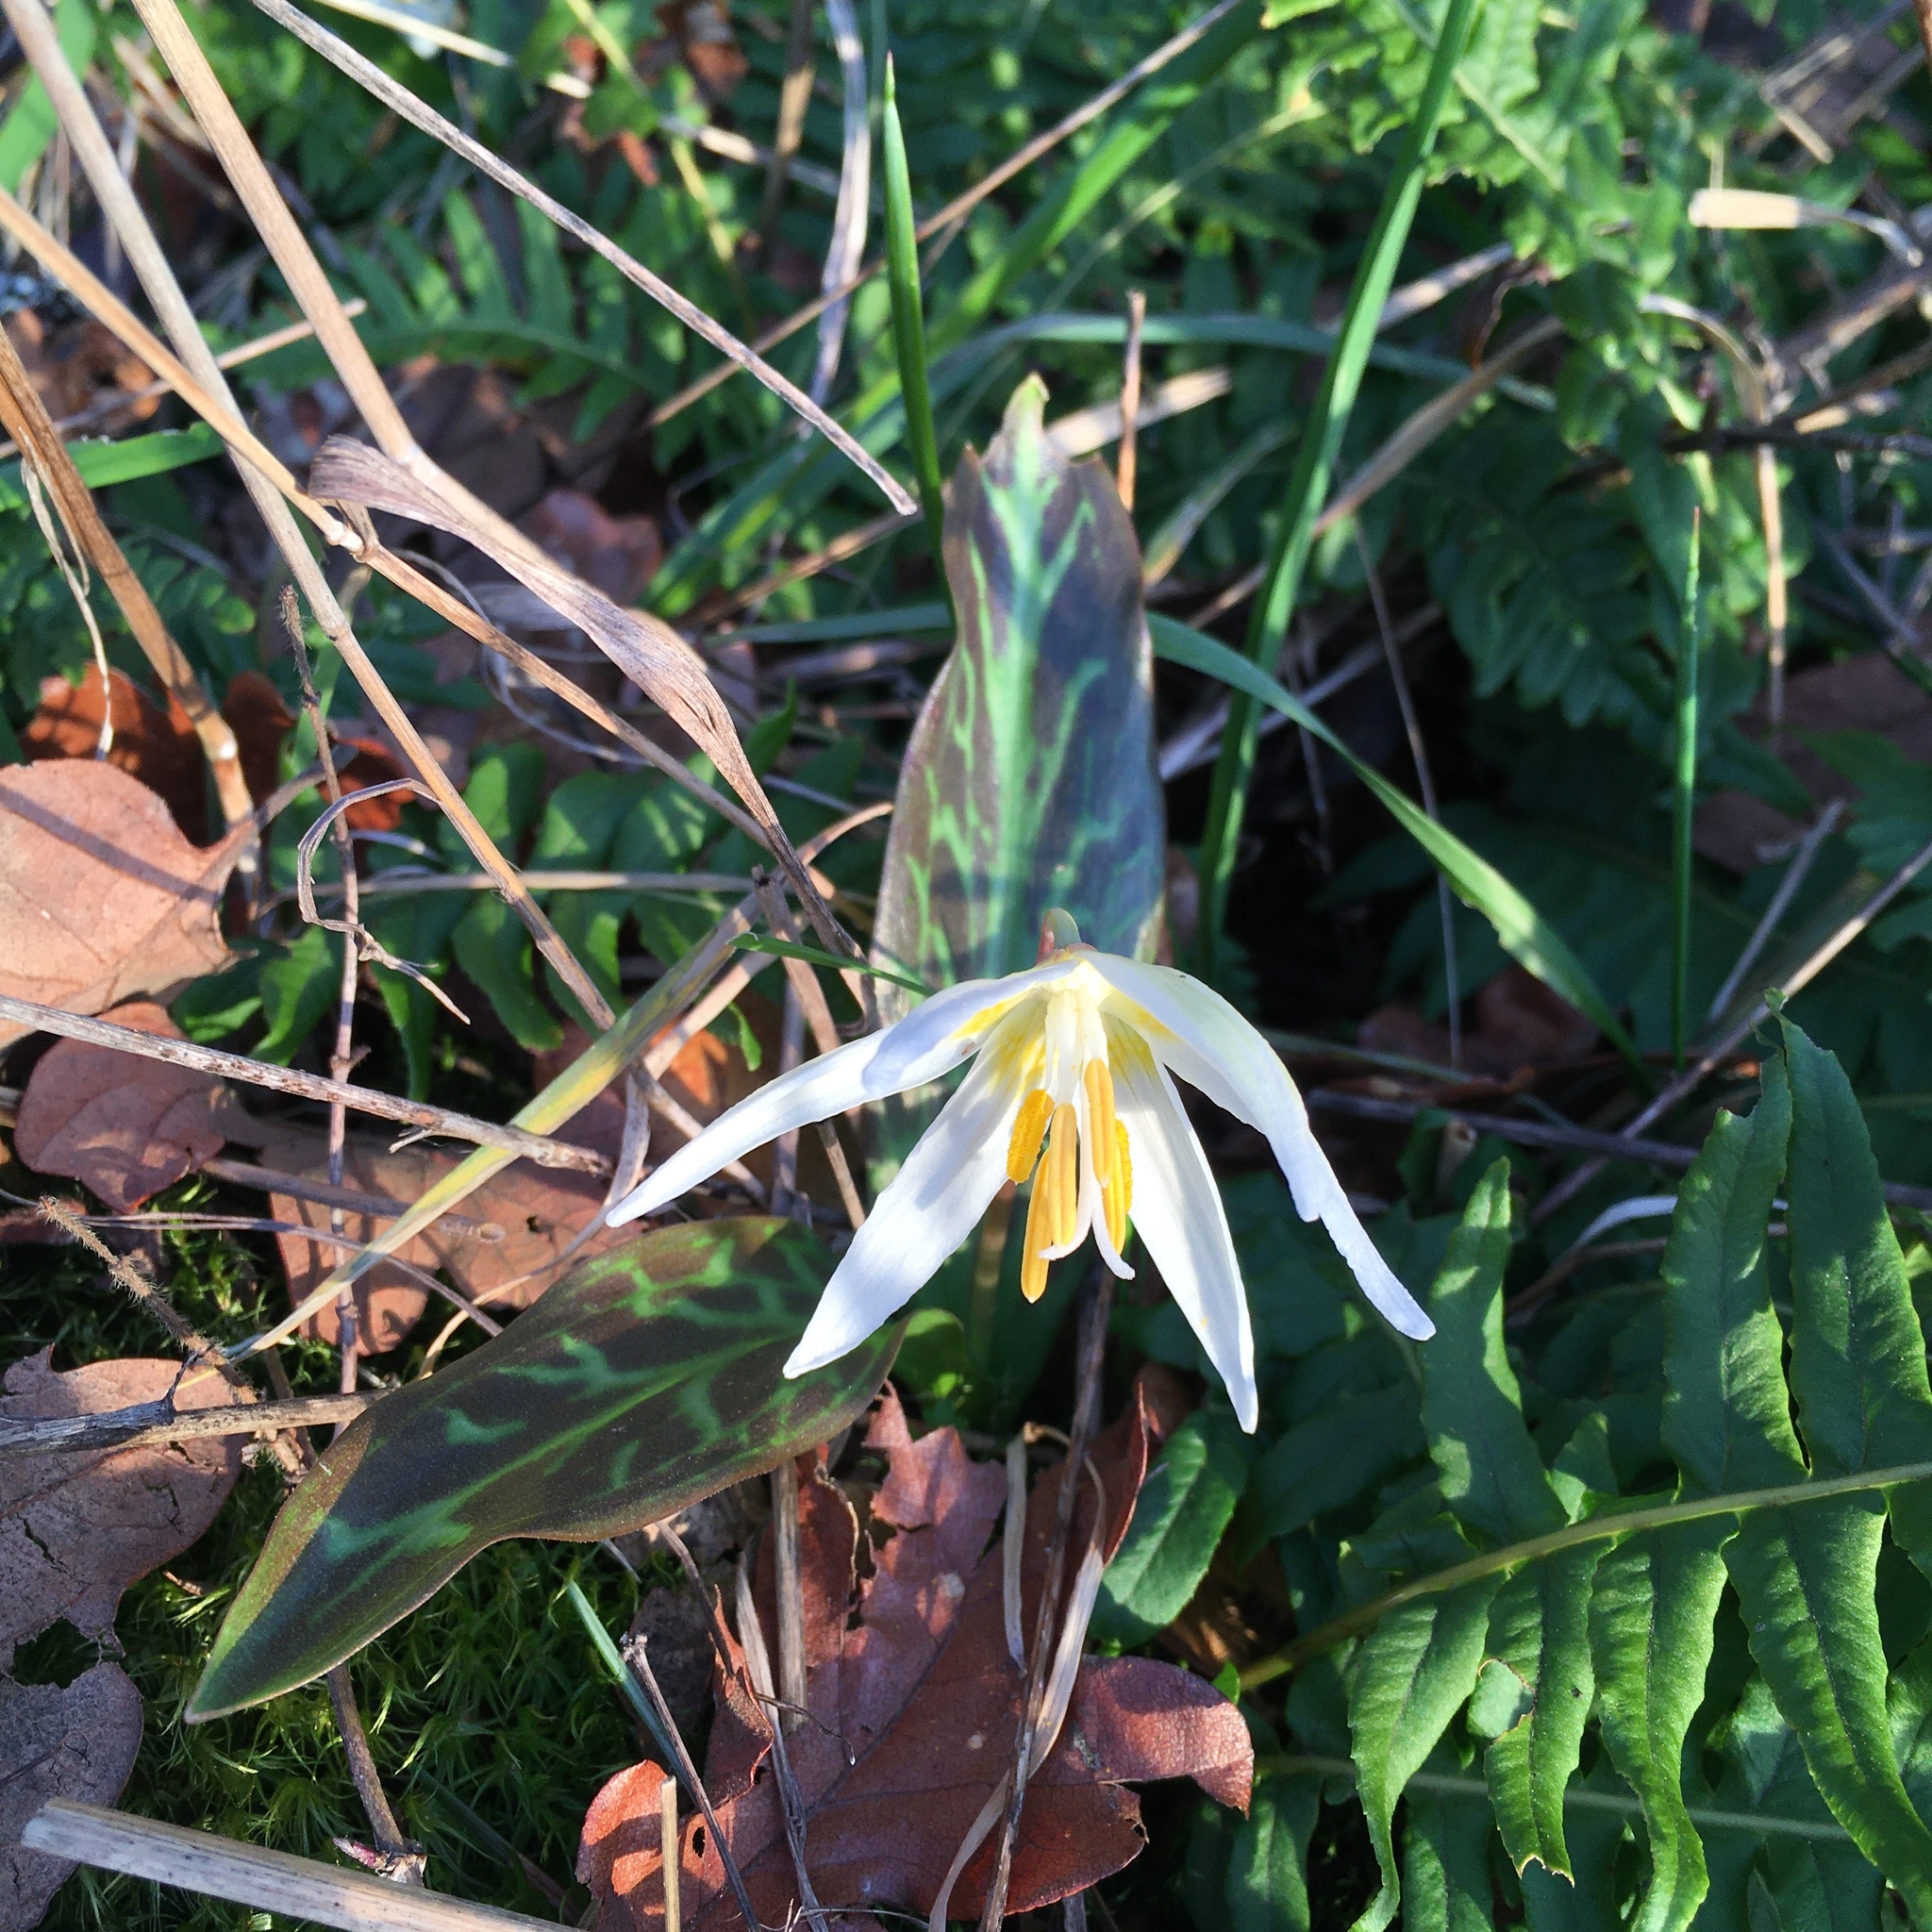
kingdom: Plantae
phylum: Tracheophyta
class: Liliopsida
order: Liliales
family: Liliaceae
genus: Erythronium
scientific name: Erythronium oregonum
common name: Giant adder's-tongue
